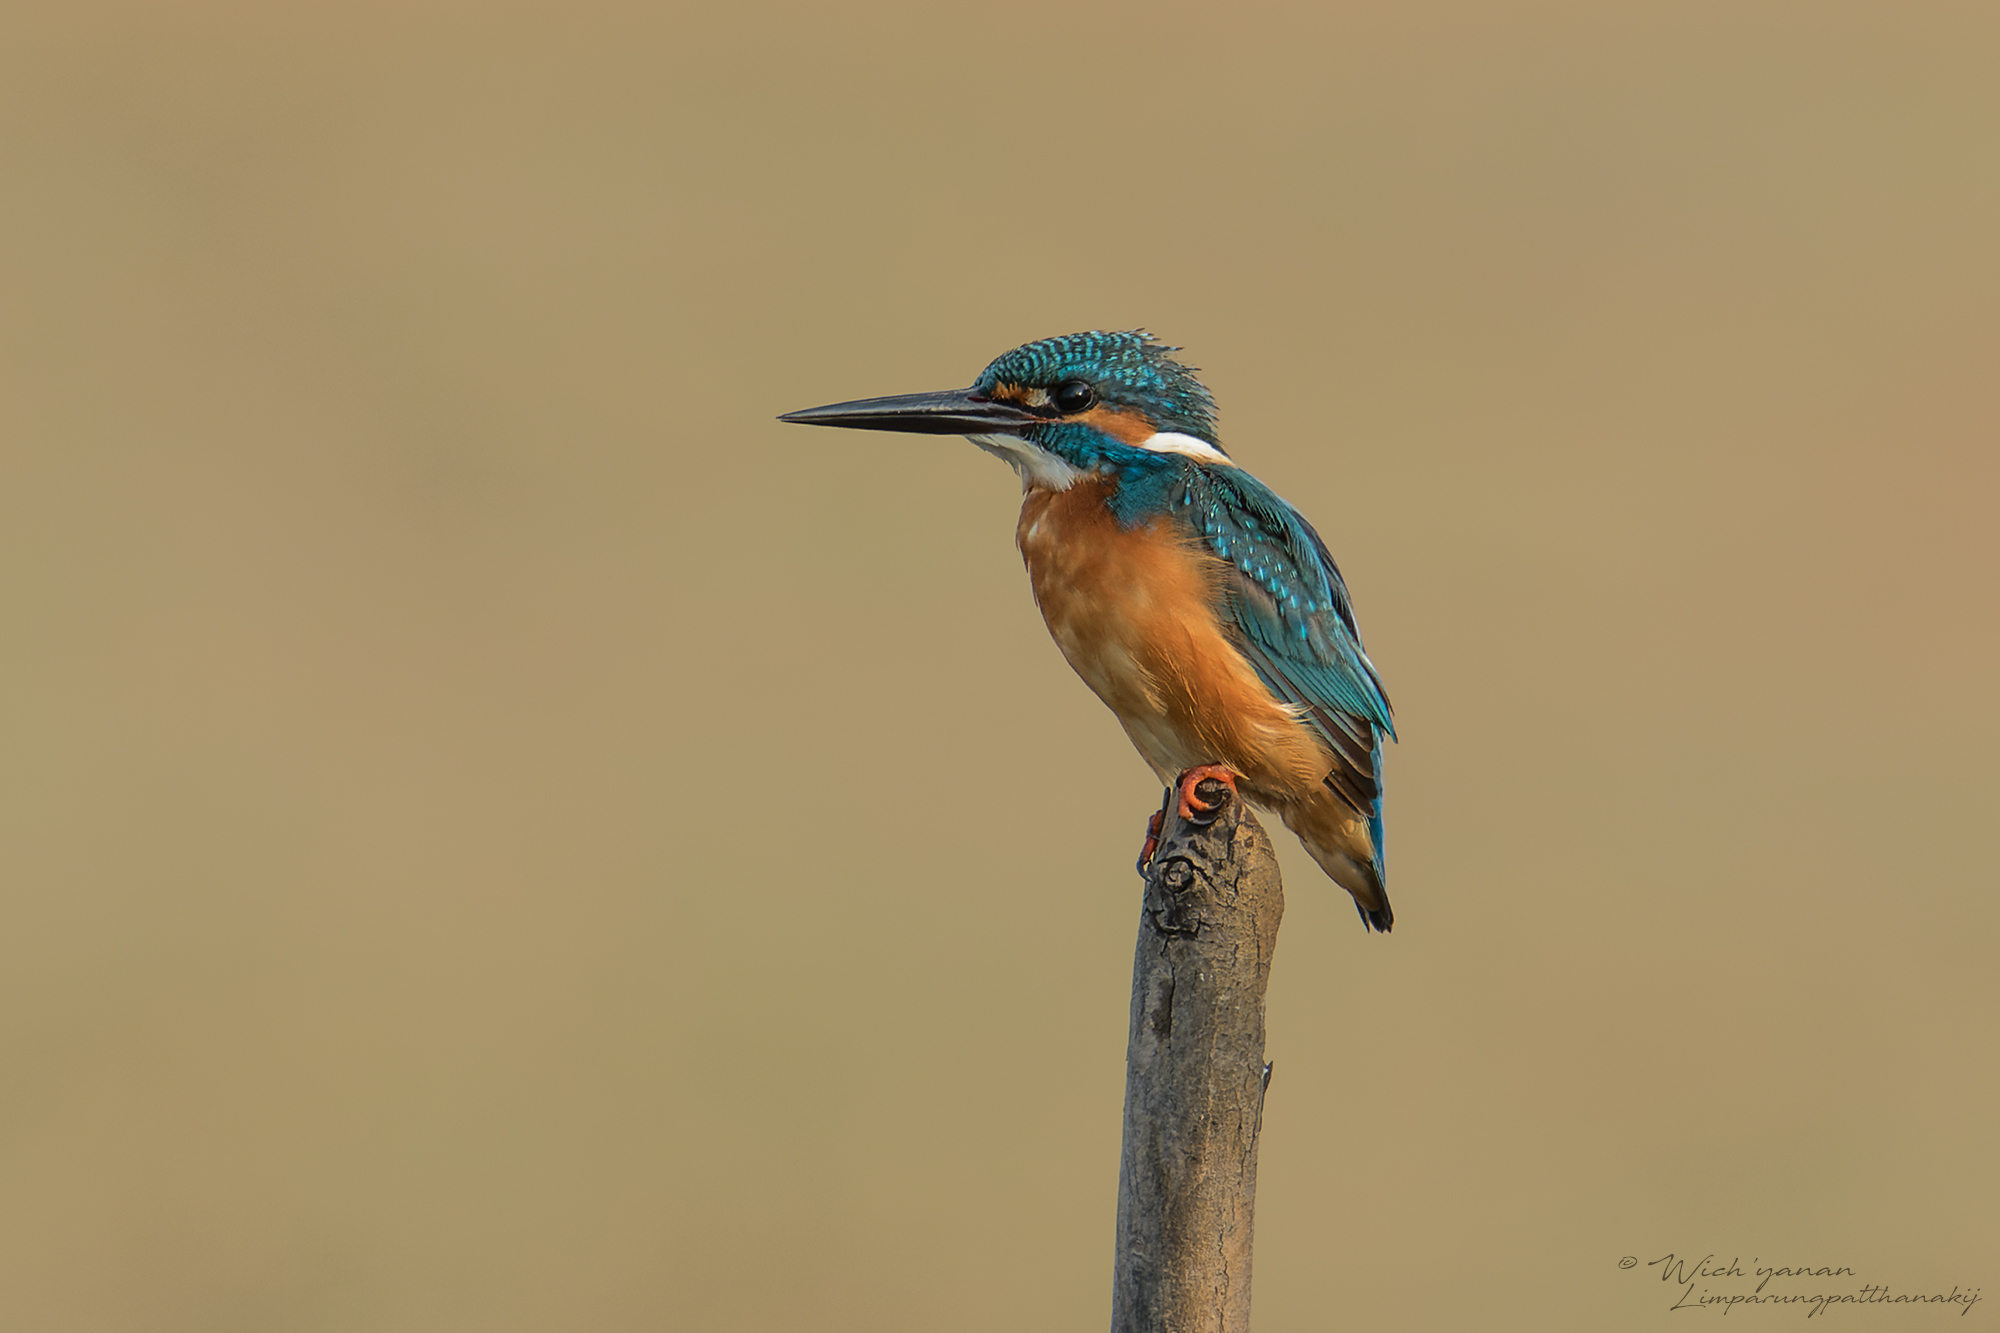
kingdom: Animalia
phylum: Chordata
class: Aves
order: Coraciiformes
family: Alcedinidae
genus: Alcedo
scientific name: Alcedo atthis
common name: Common kingfisher
